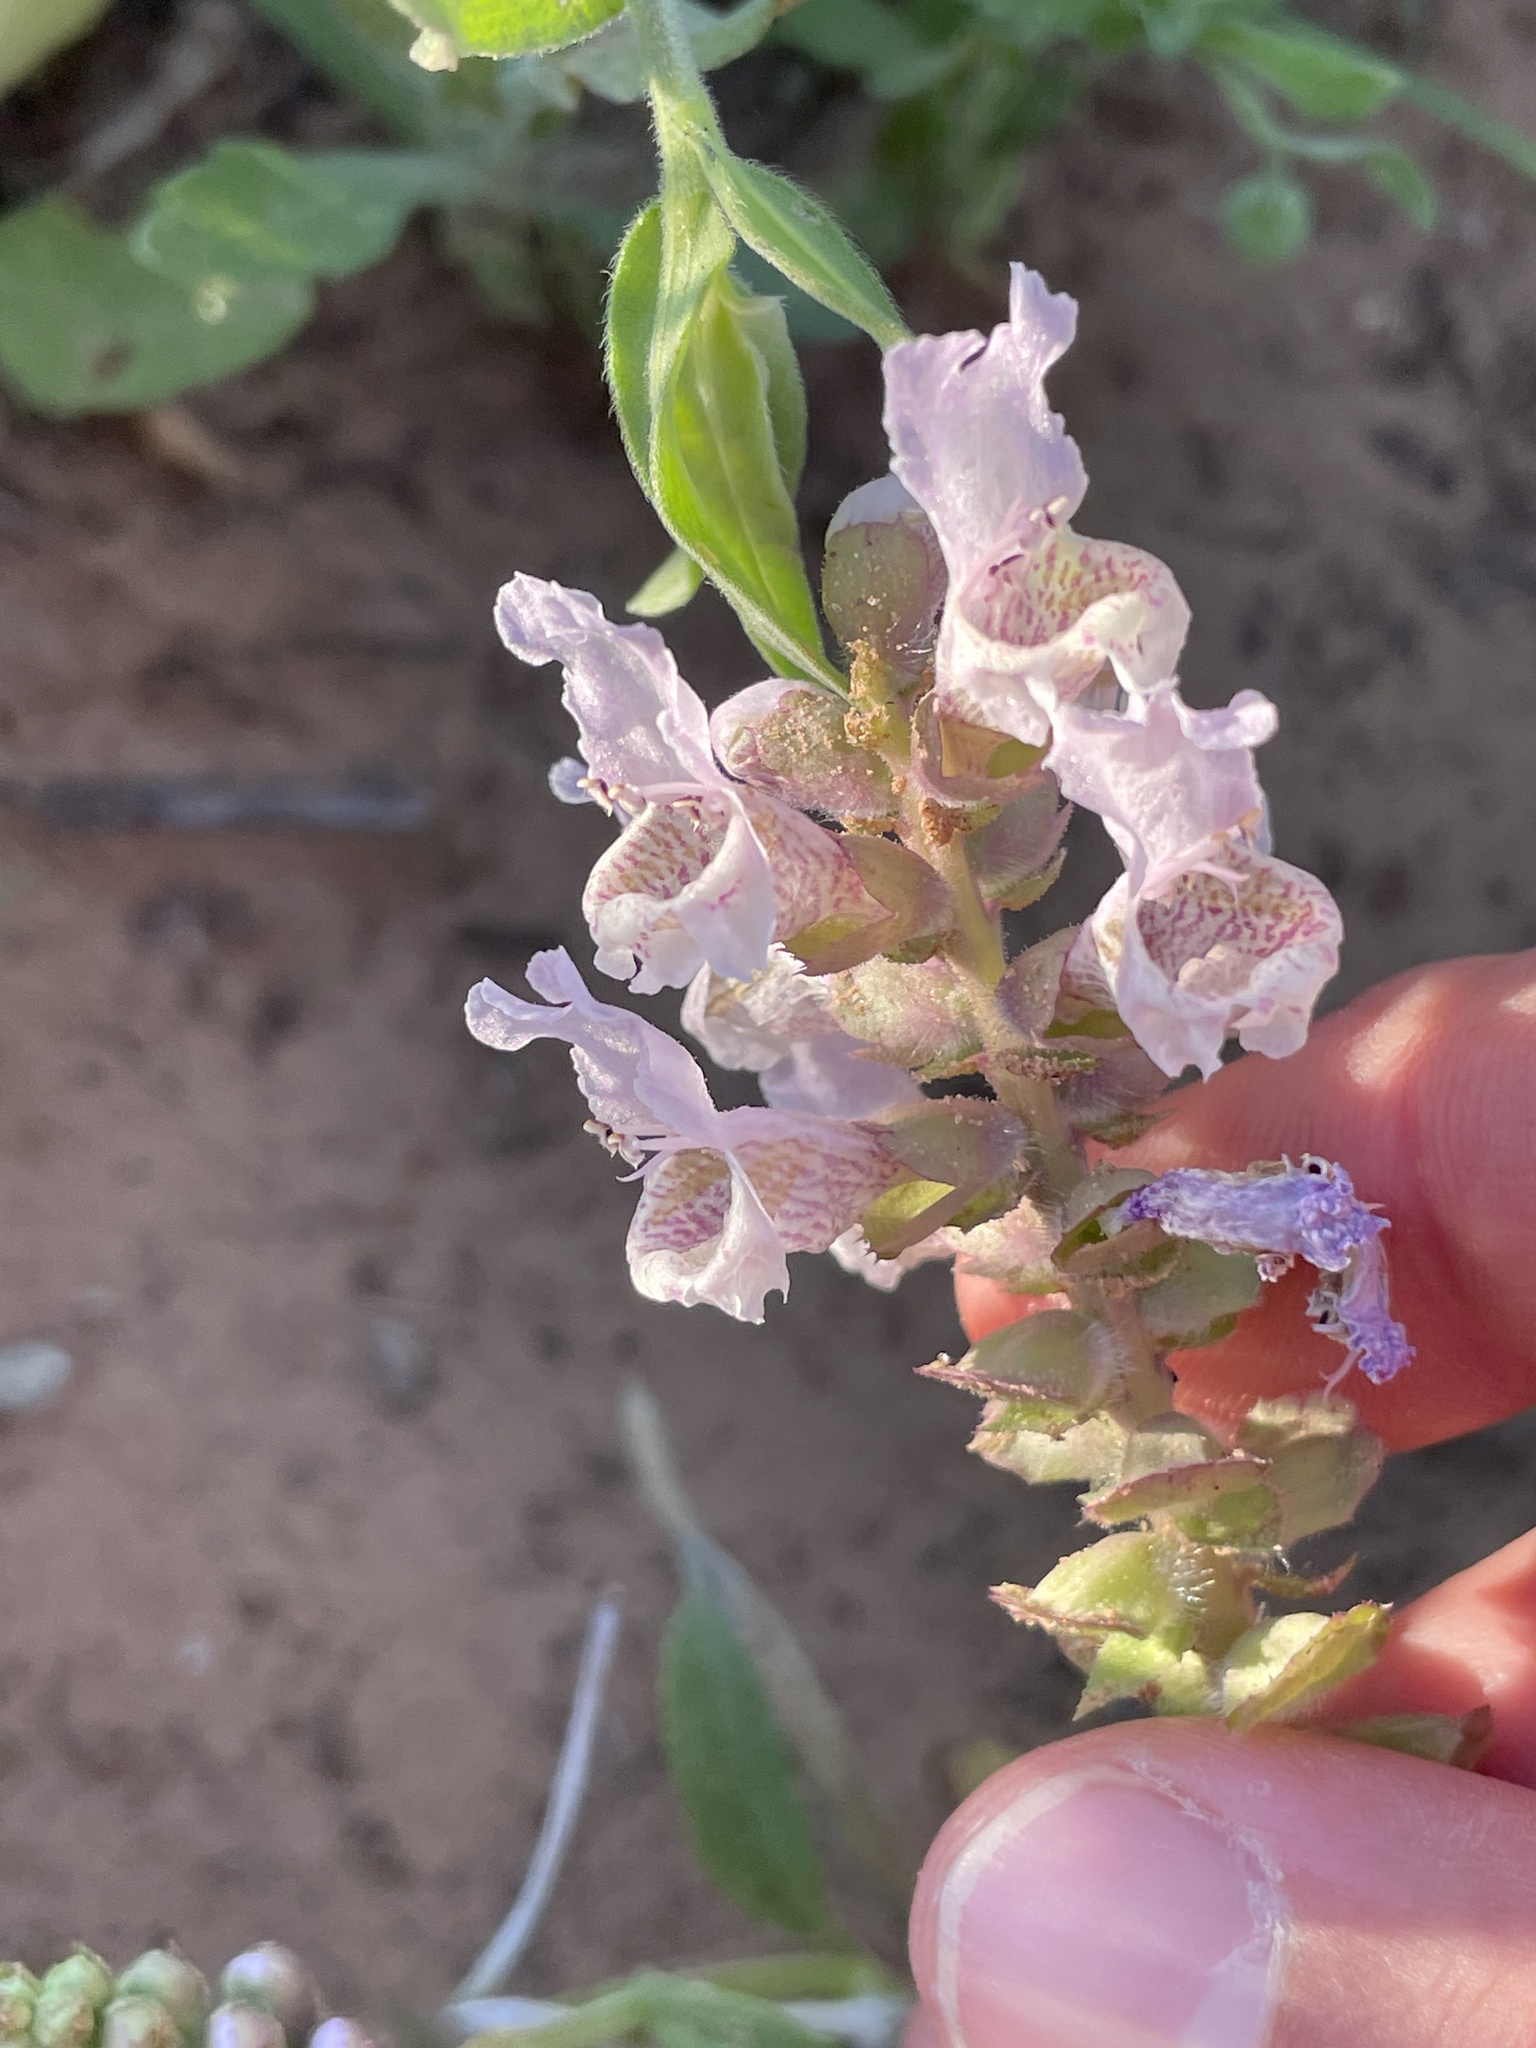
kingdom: Plantae
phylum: Tracheophyta
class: Magnoliopsida
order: Lamiales
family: Lamiaceae
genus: Brazoria
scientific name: Brazoria truncata
